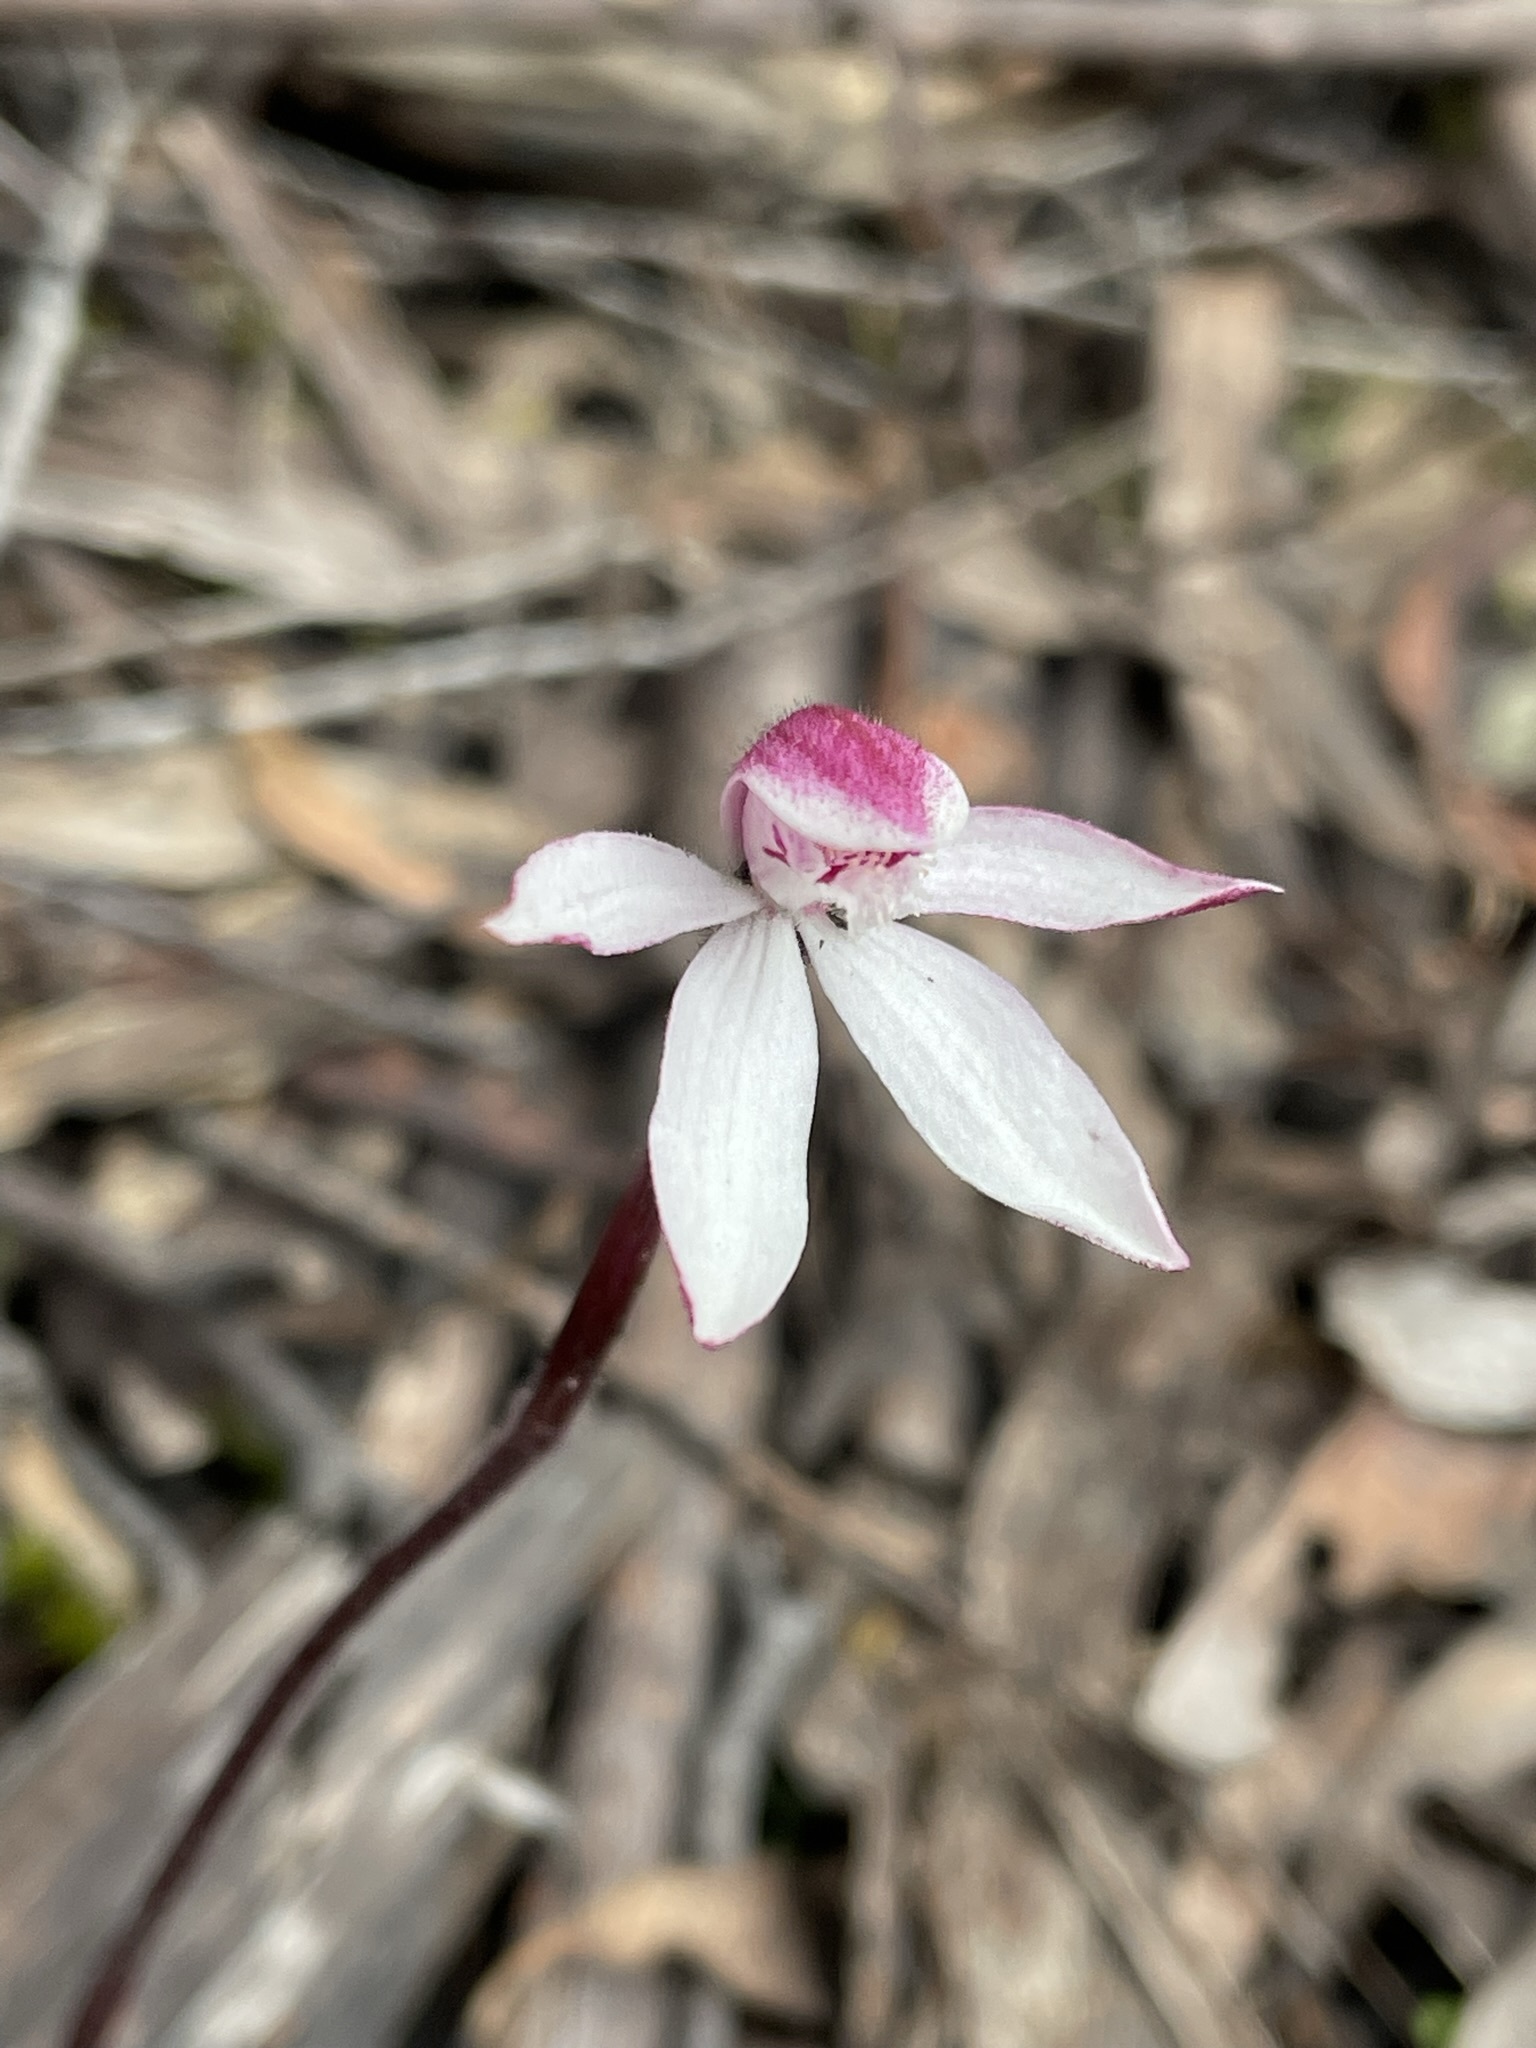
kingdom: Plantae
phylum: Tracheophyta
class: Liliopsida
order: Asparagales
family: Orchidaceae
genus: Caladenia
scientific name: Caladenia alpina
